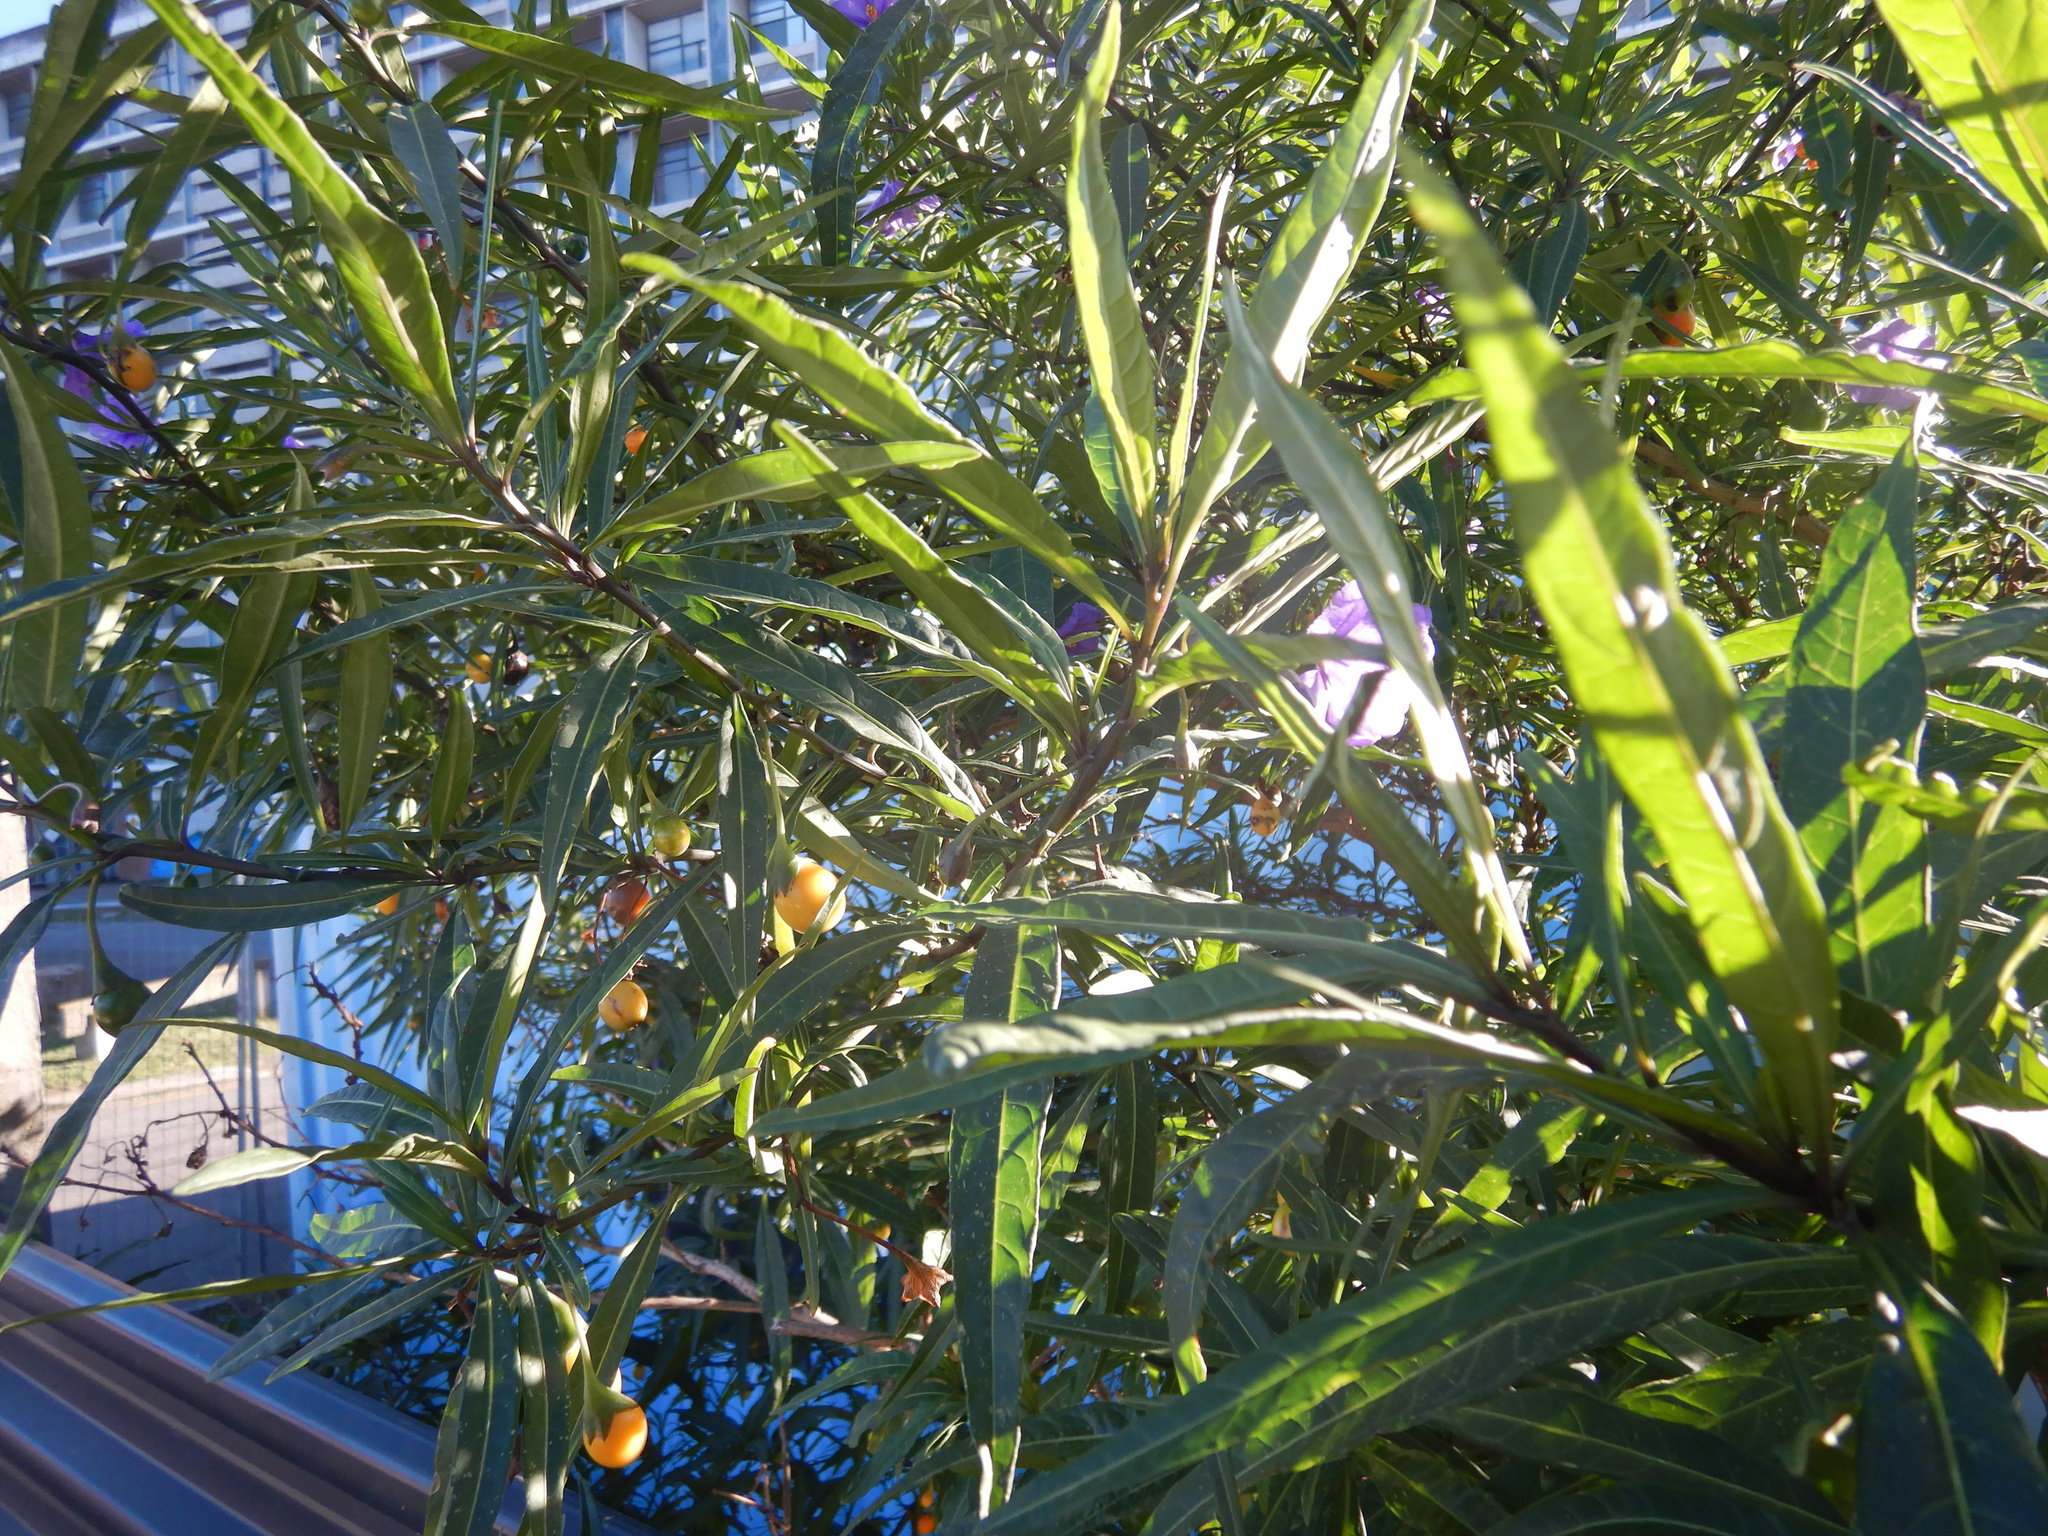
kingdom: Plantae
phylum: Tracheophyta
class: Magnoliopsida
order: Solanales
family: Solanaceae
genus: Solanum
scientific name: Solanum laciniatum
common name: Kangaroo-apple
